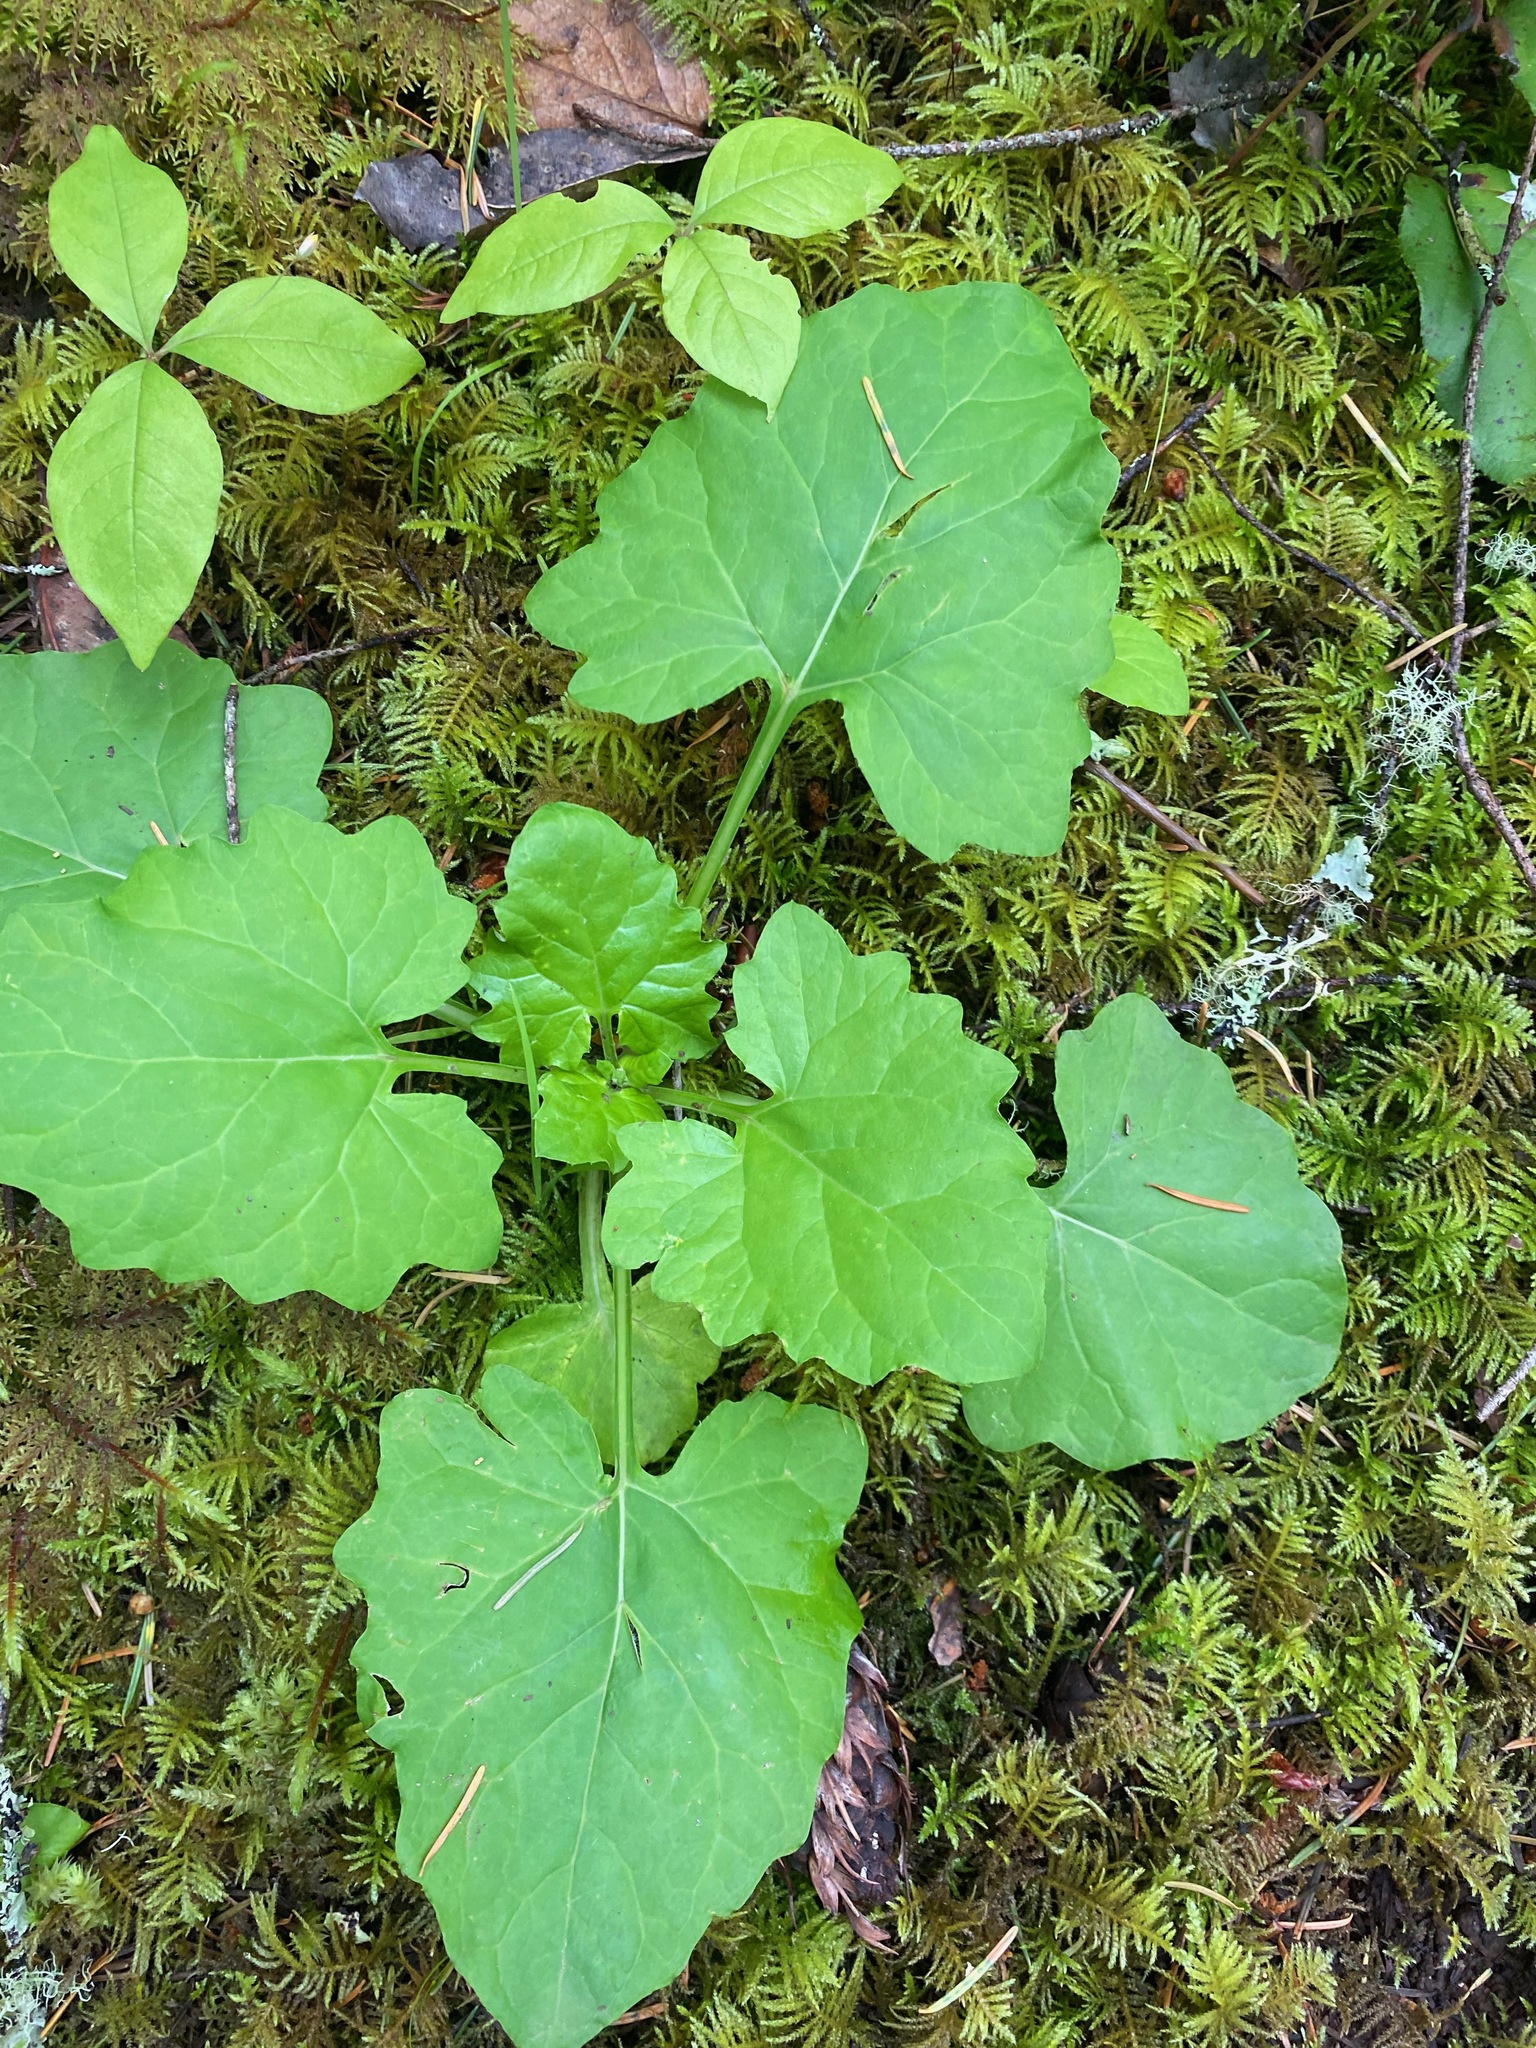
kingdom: Plantae
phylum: Tracheophyta
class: Magnoliopsida
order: Asterales
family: Asteraceae
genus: Adenocaulon
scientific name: Adenocaulon bicolor
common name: Trailplant
